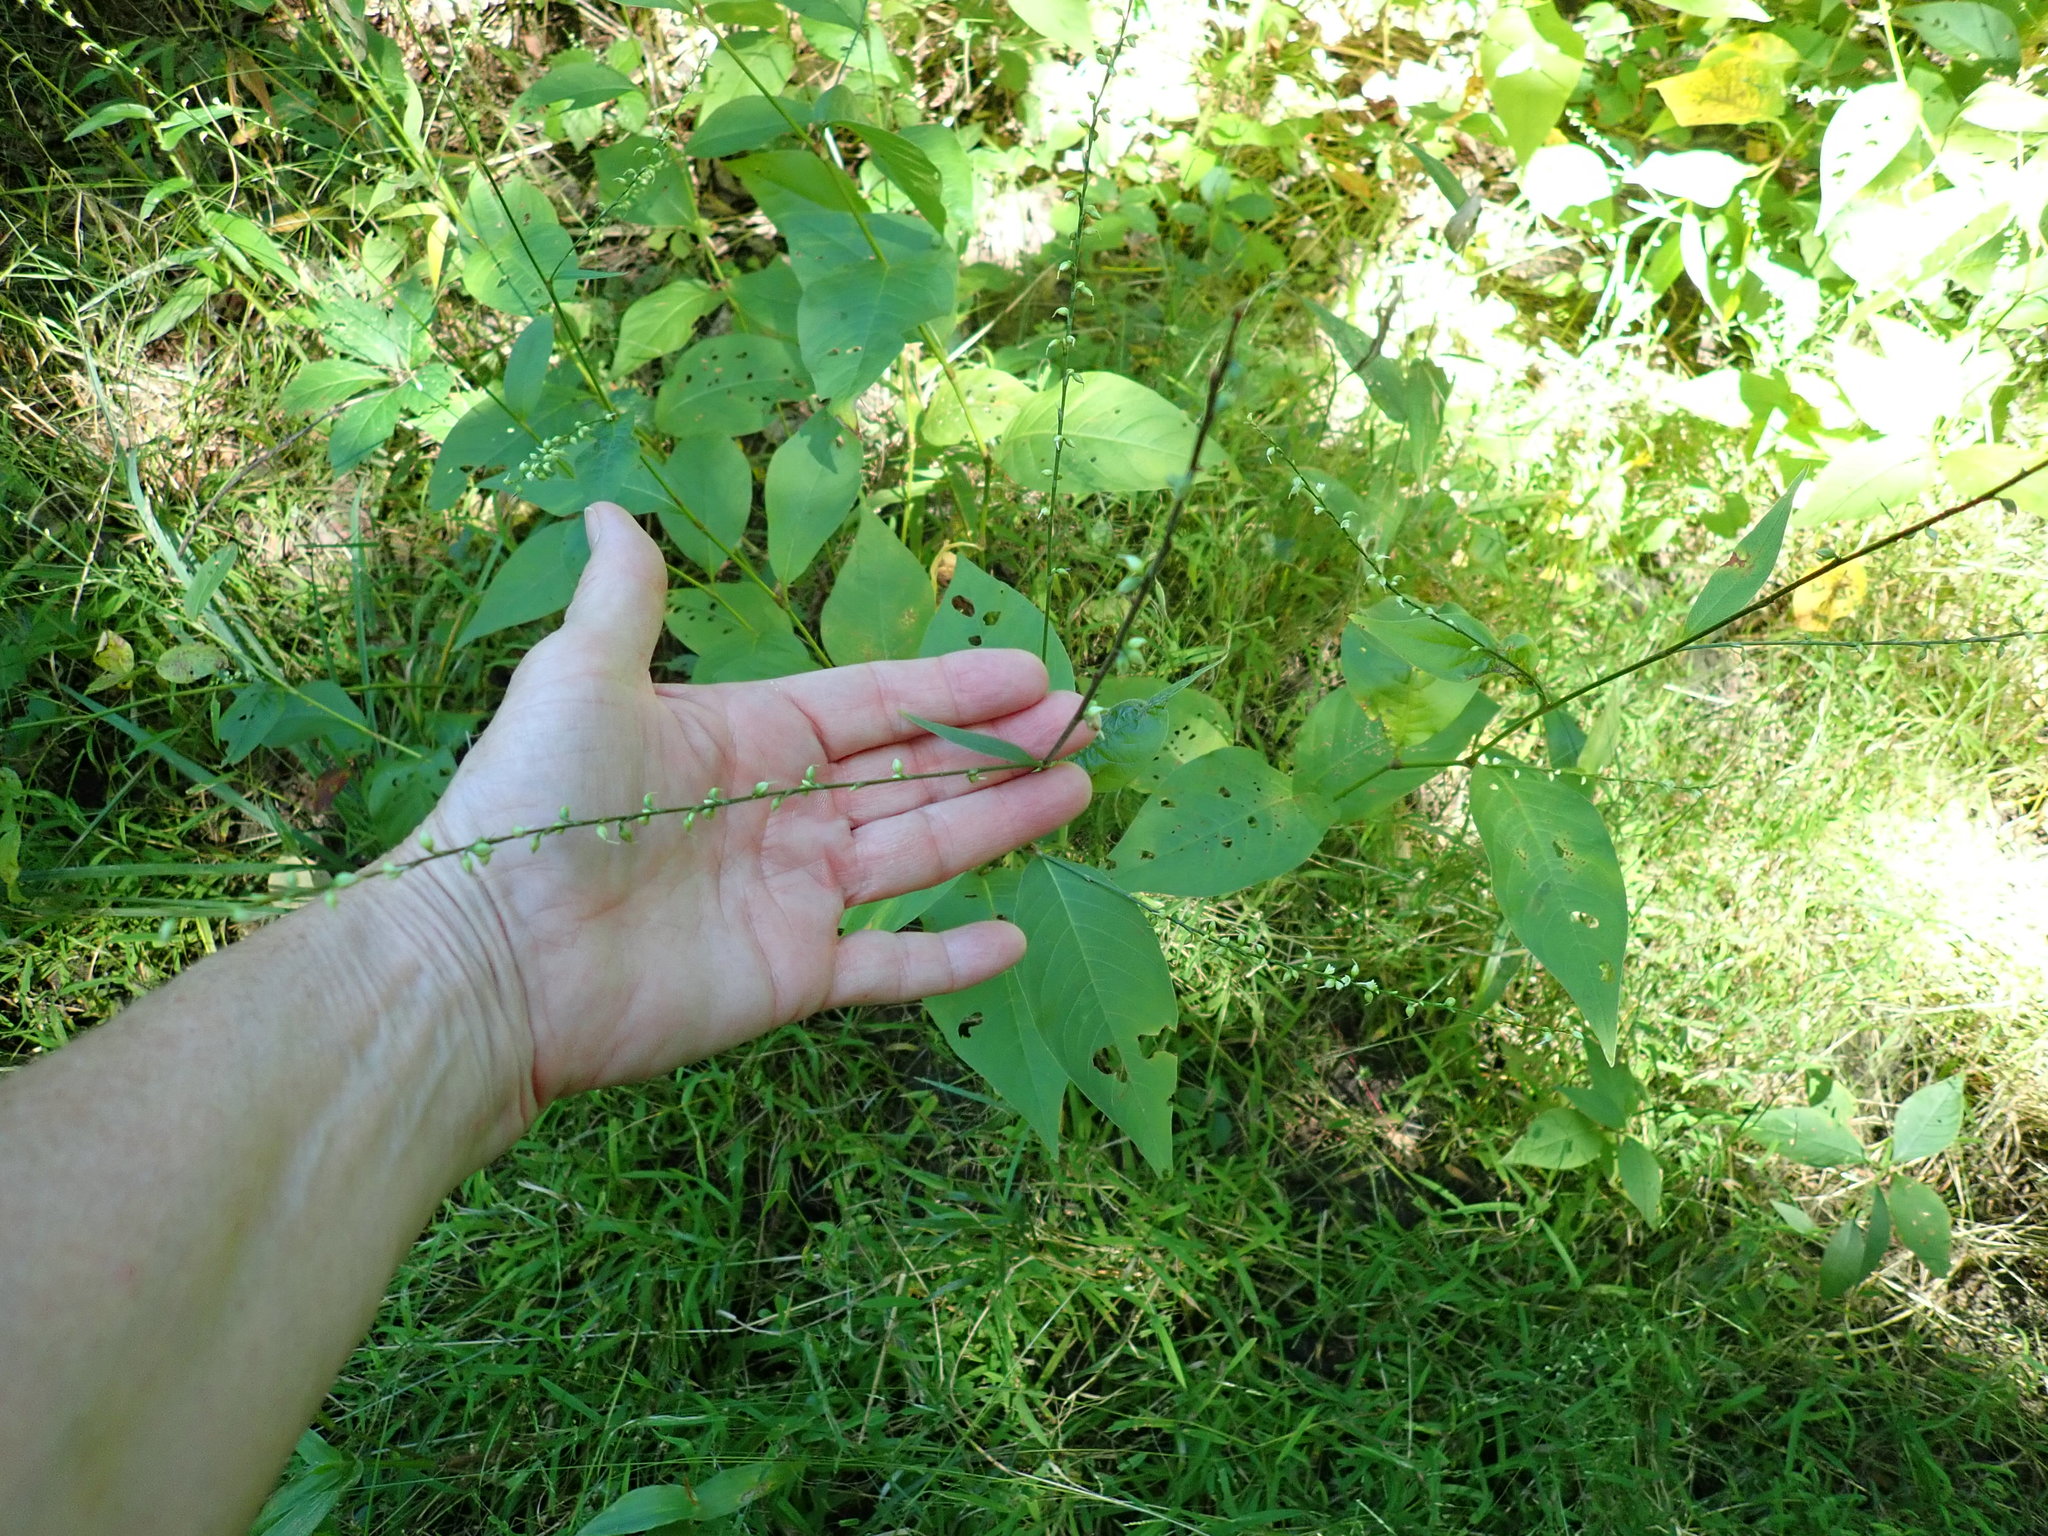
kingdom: Plantae
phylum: Tracheophyta
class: Magnoliopsida
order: Caryophyllales
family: Polygonaceae
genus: Persicaria
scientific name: Persicaria virginiana
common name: Jumpseed
